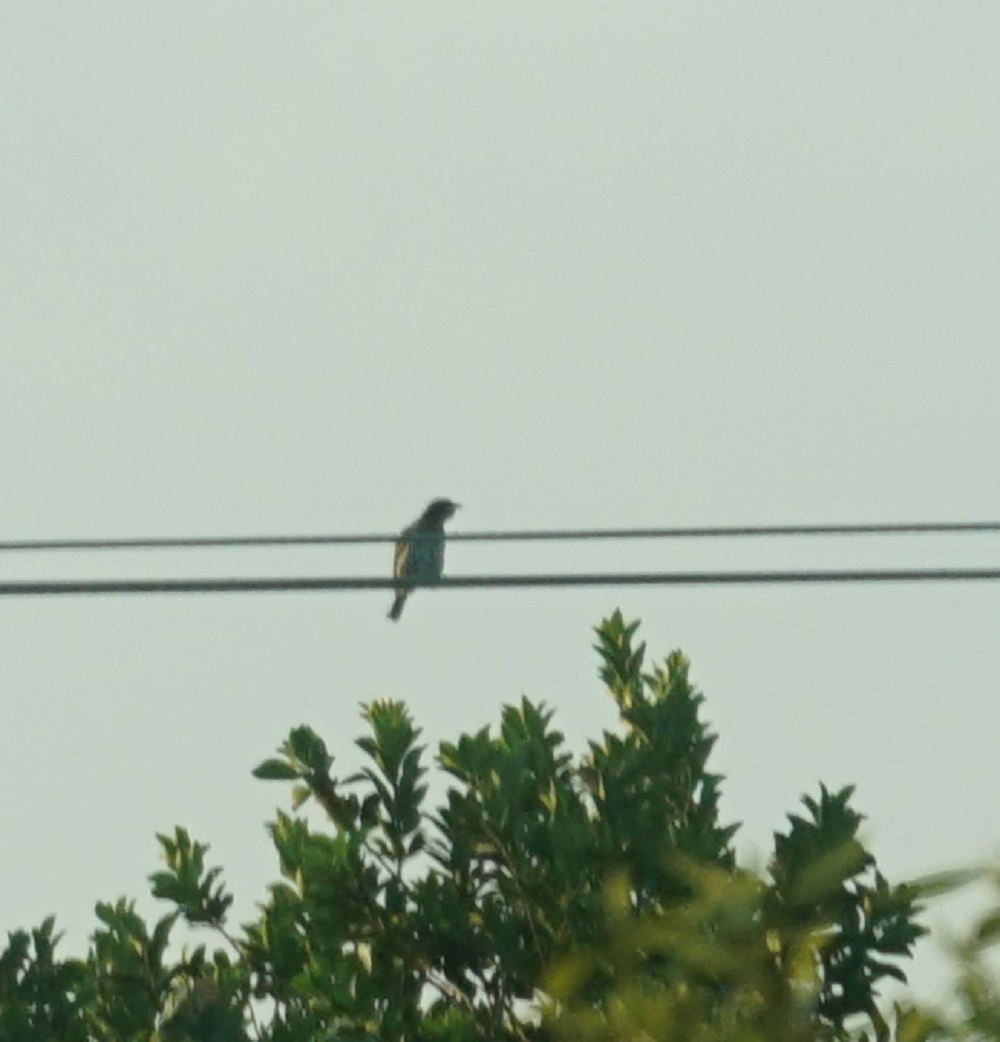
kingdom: Animalia
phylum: Chordata
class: Aves
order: Passeriformes
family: Oriolidae
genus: Sphecotheres
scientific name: Sphecotheres vieilloti
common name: Australasian figbird
